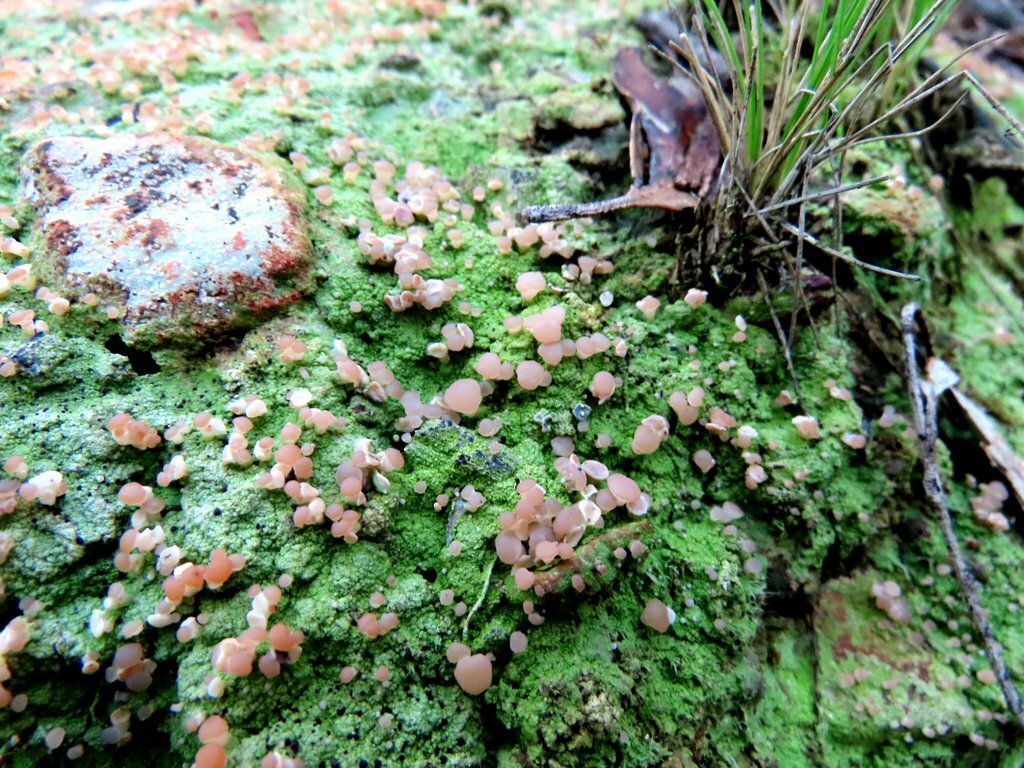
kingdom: Fungi
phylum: Ascomycota
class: Lecanoromycetes
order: Baeomycetales
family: Baeomycetaceae
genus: Baeomyces
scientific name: Baeomyces heteromorphus
